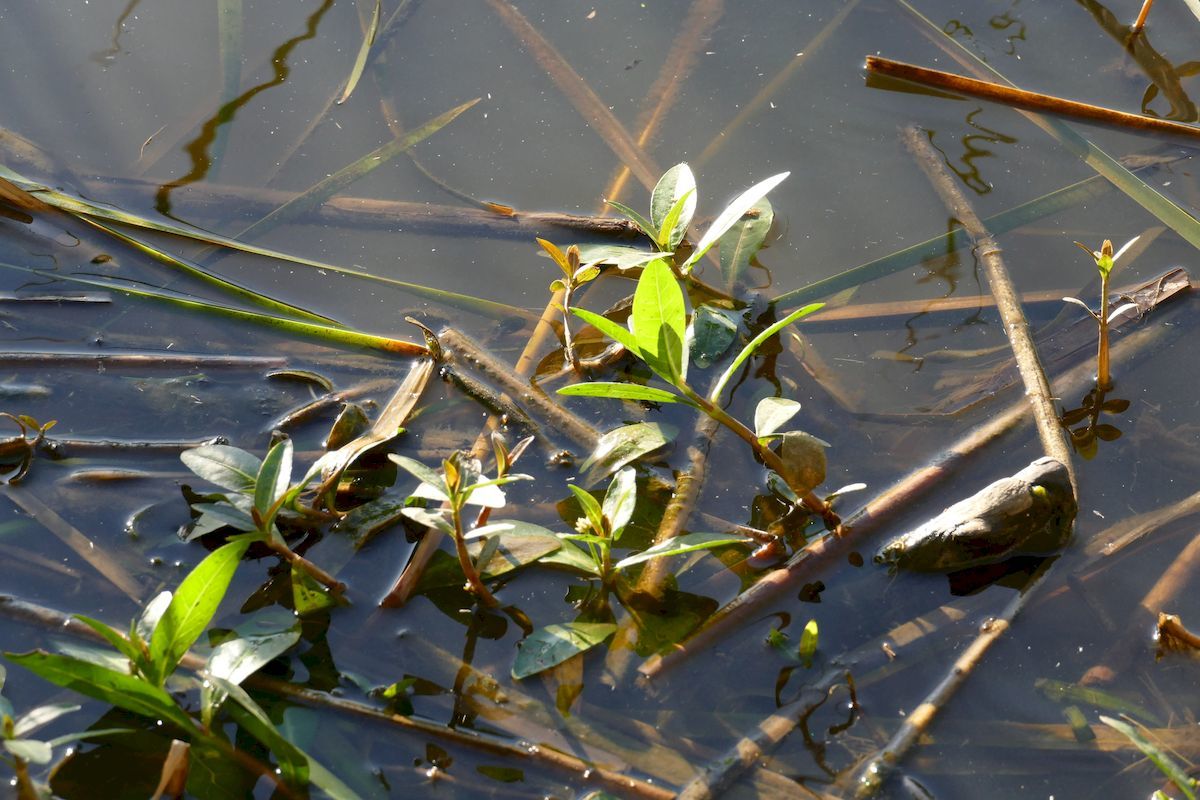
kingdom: Plantae
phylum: Tracheophyta
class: Magnoliopsida
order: Caryophyllales
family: Amaranthaceae
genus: Alternanthera
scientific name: Alternanthera philoxeroides
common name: Alligatorweed
